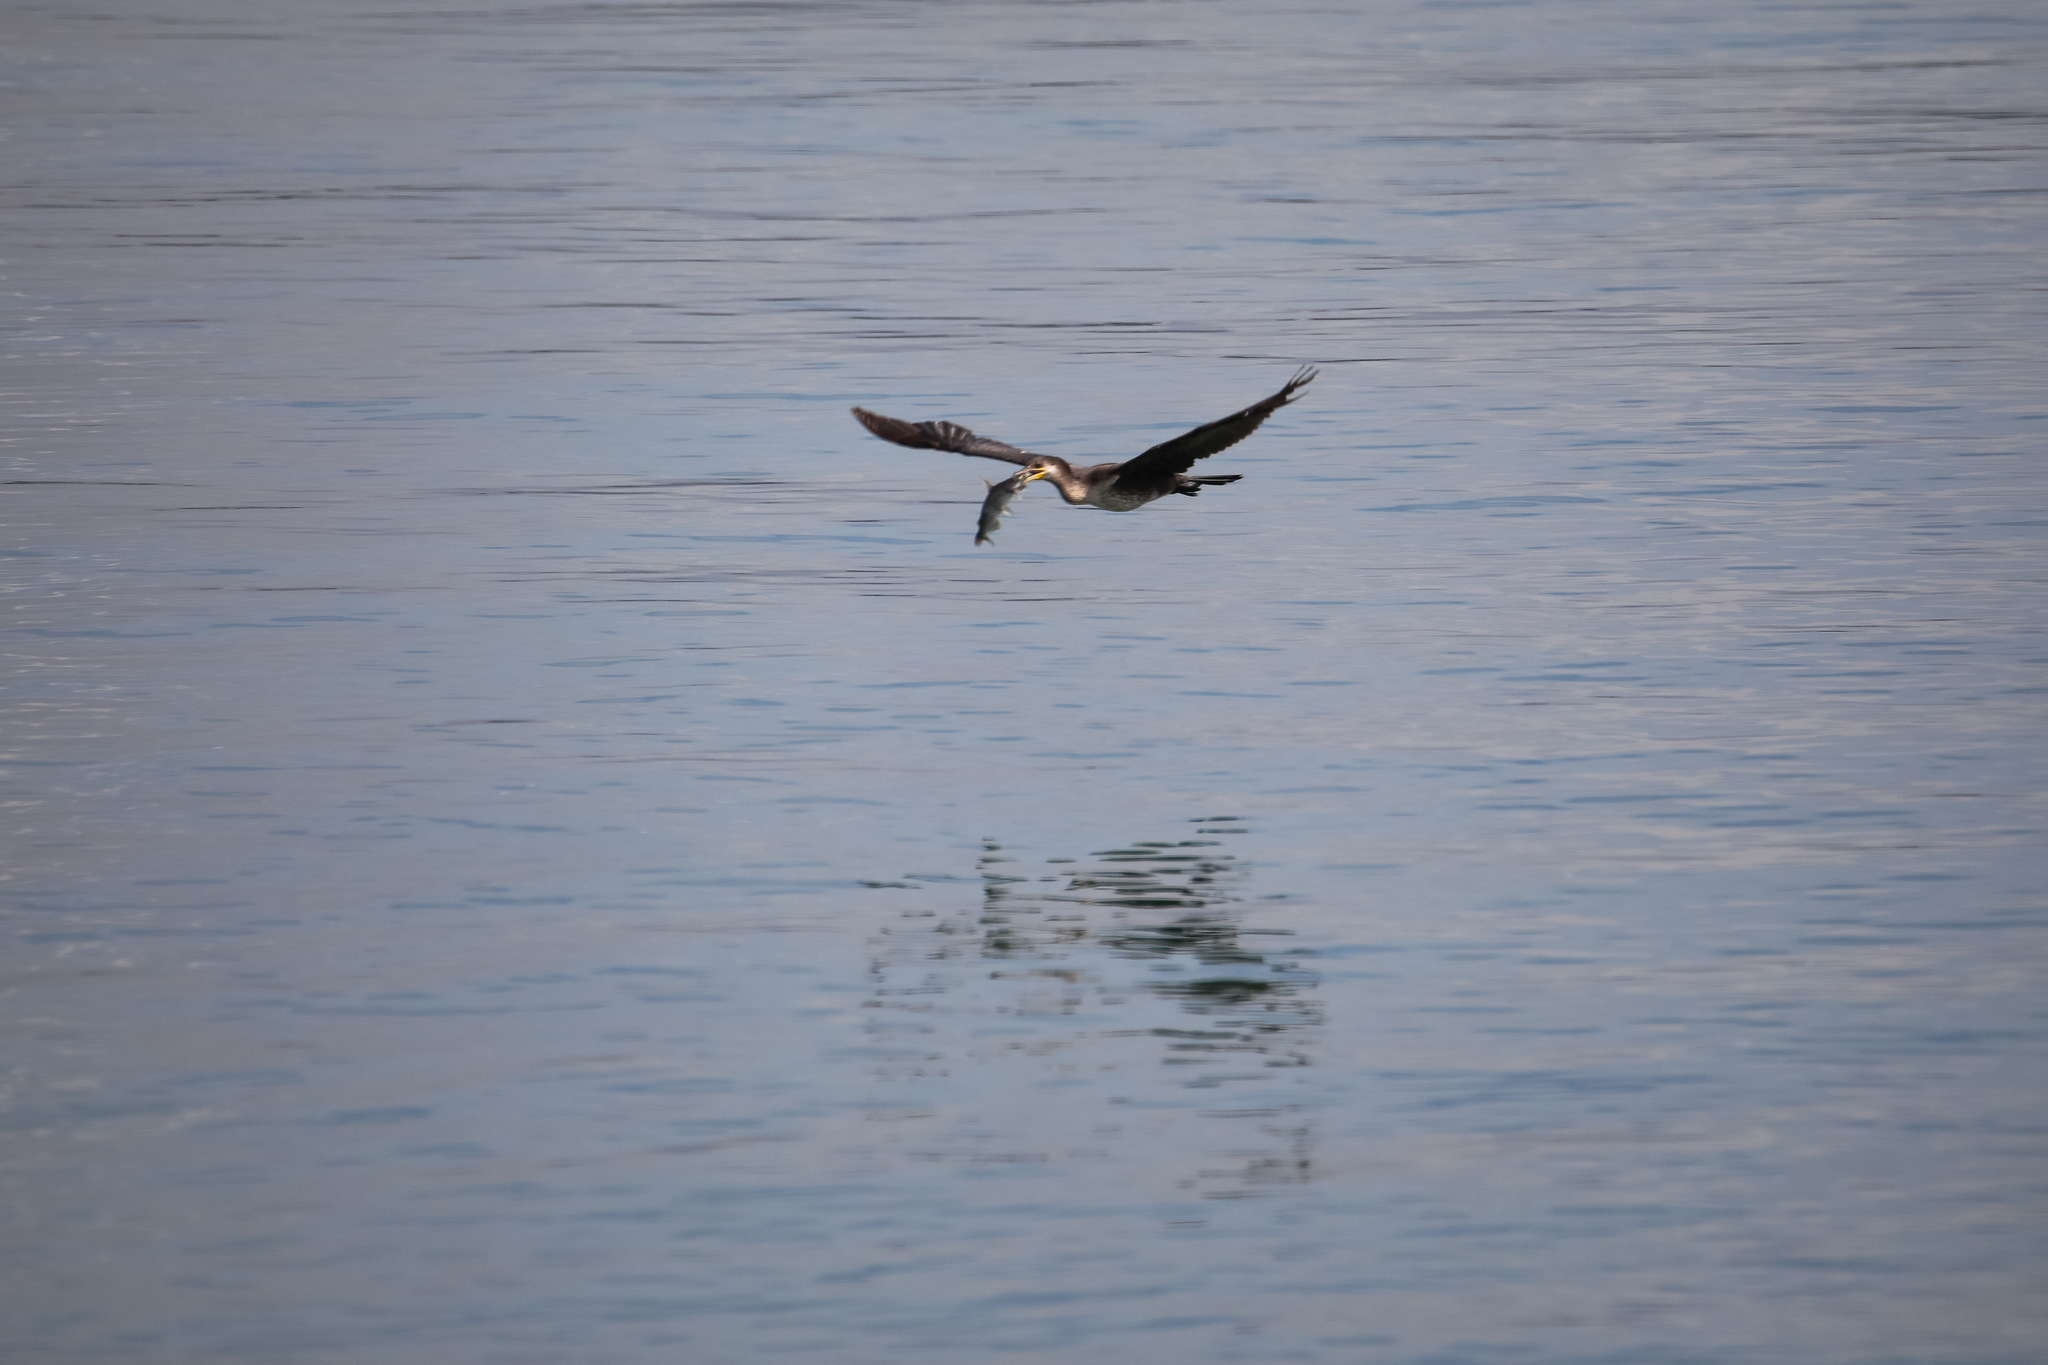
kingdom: Animalia
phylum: Chordata
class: Aves
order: Suliformes
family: Phalacrocoracidae
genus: Phalacrocorax
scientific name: Phalacrocorax brasilianus
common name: Neotropic cormorant
